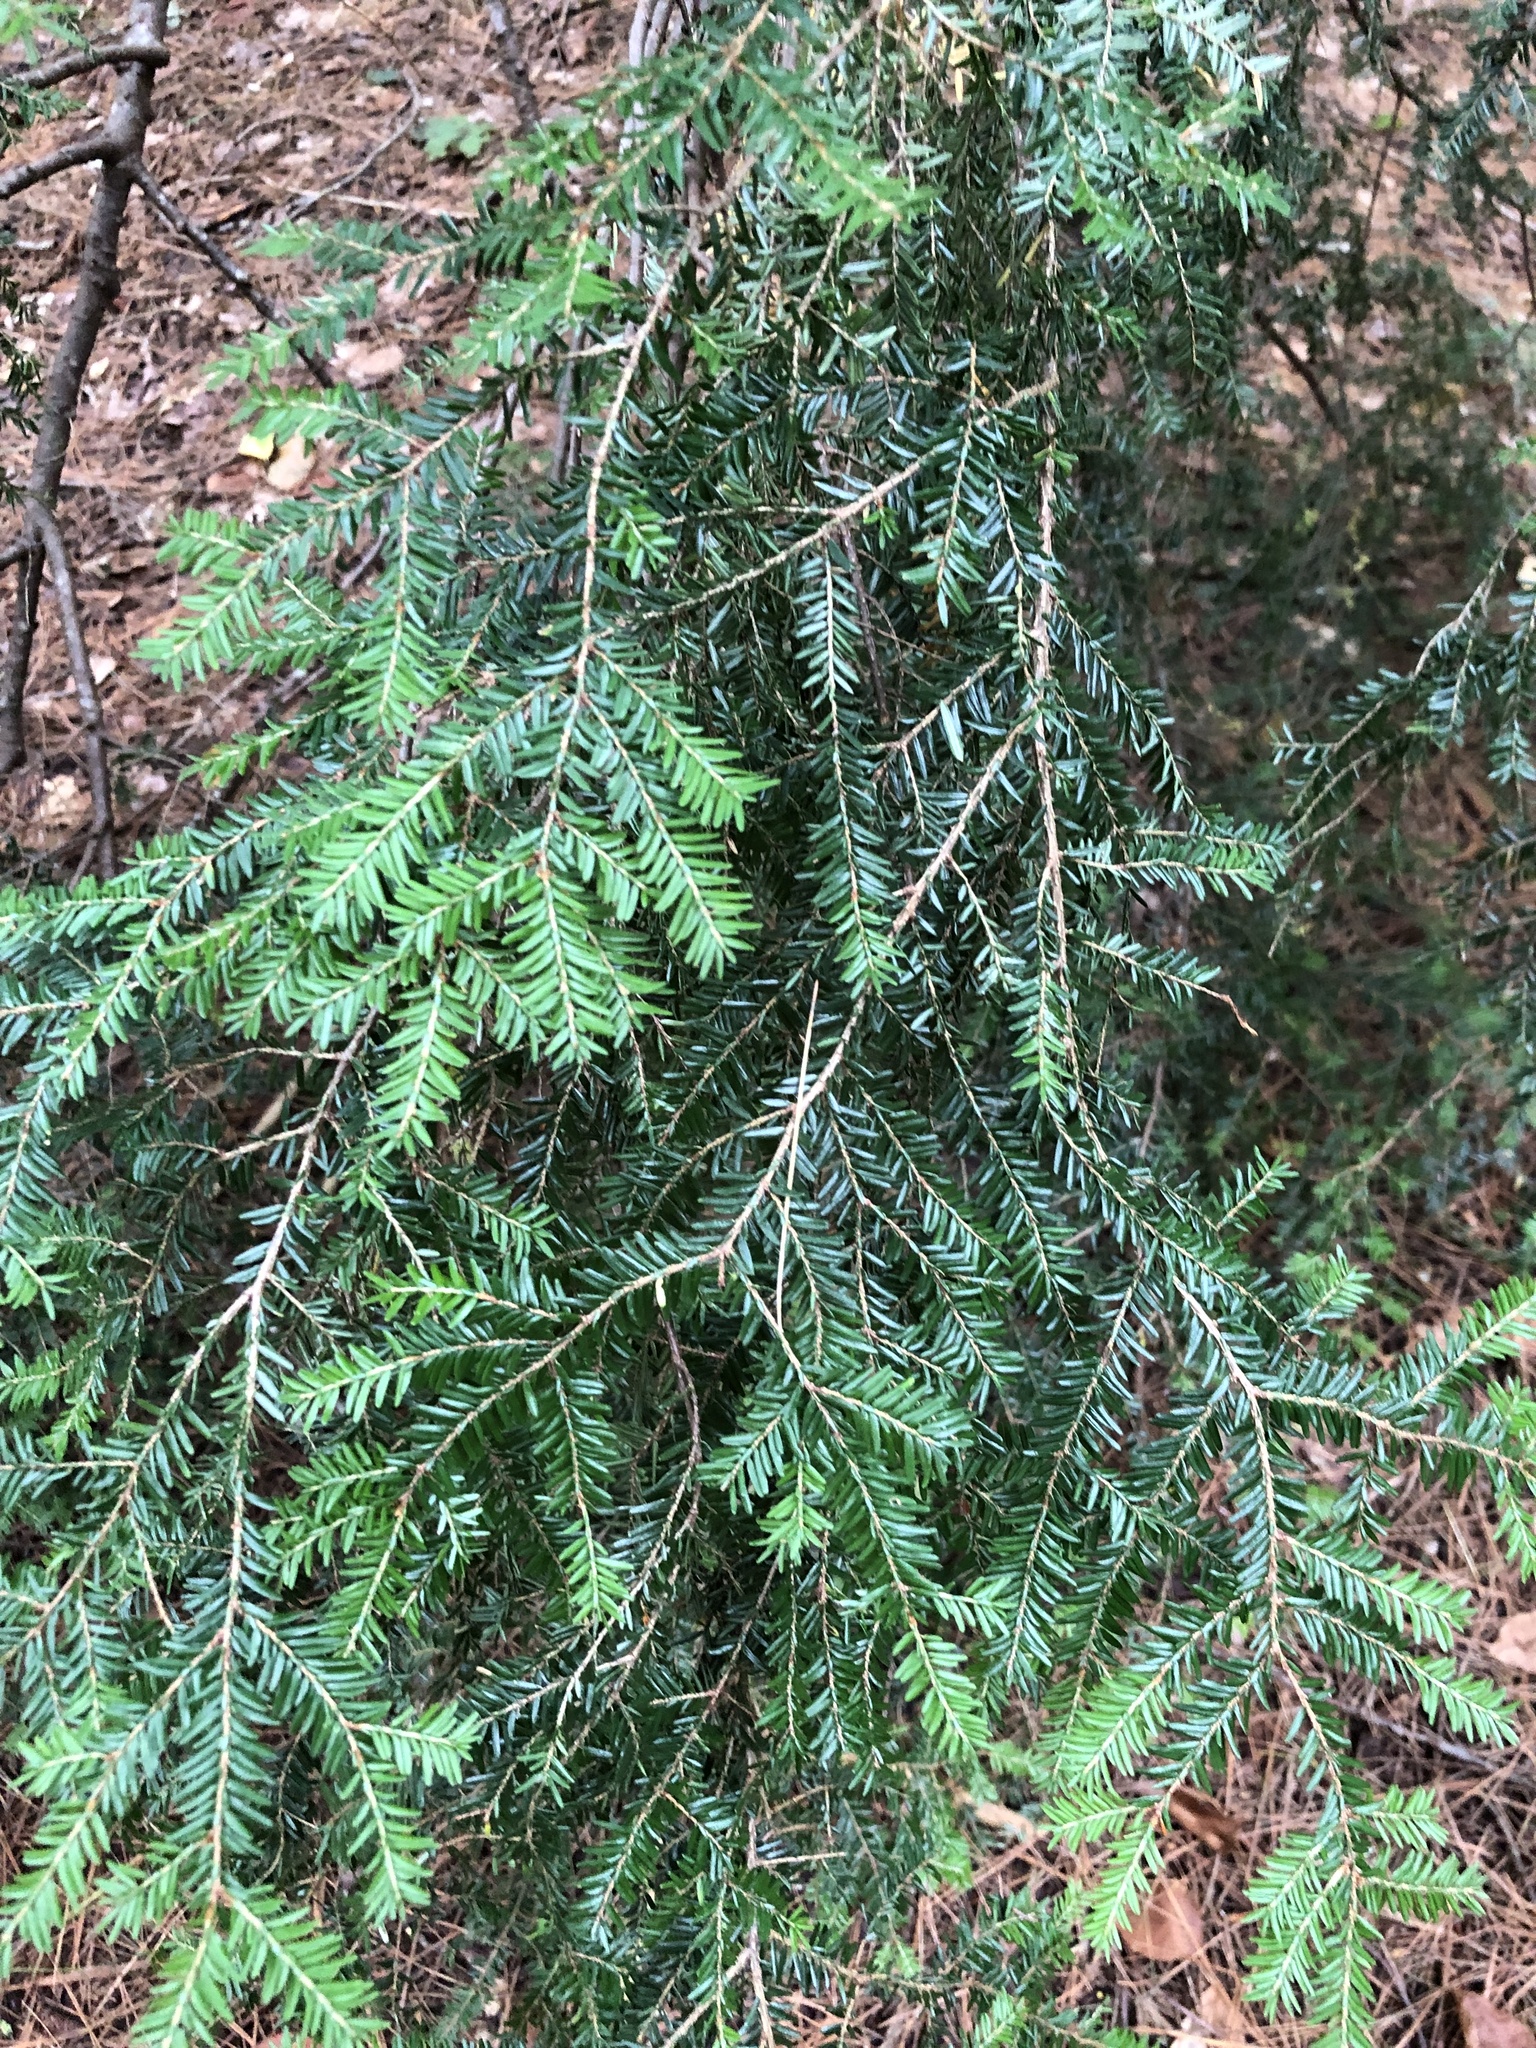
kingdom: Plantae
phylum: Tracheophyta
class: Pinopsida
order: Pinales
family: Pinaceae
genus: Tsuga
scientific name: Tsuga canadensis
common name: Eastern hemlock
